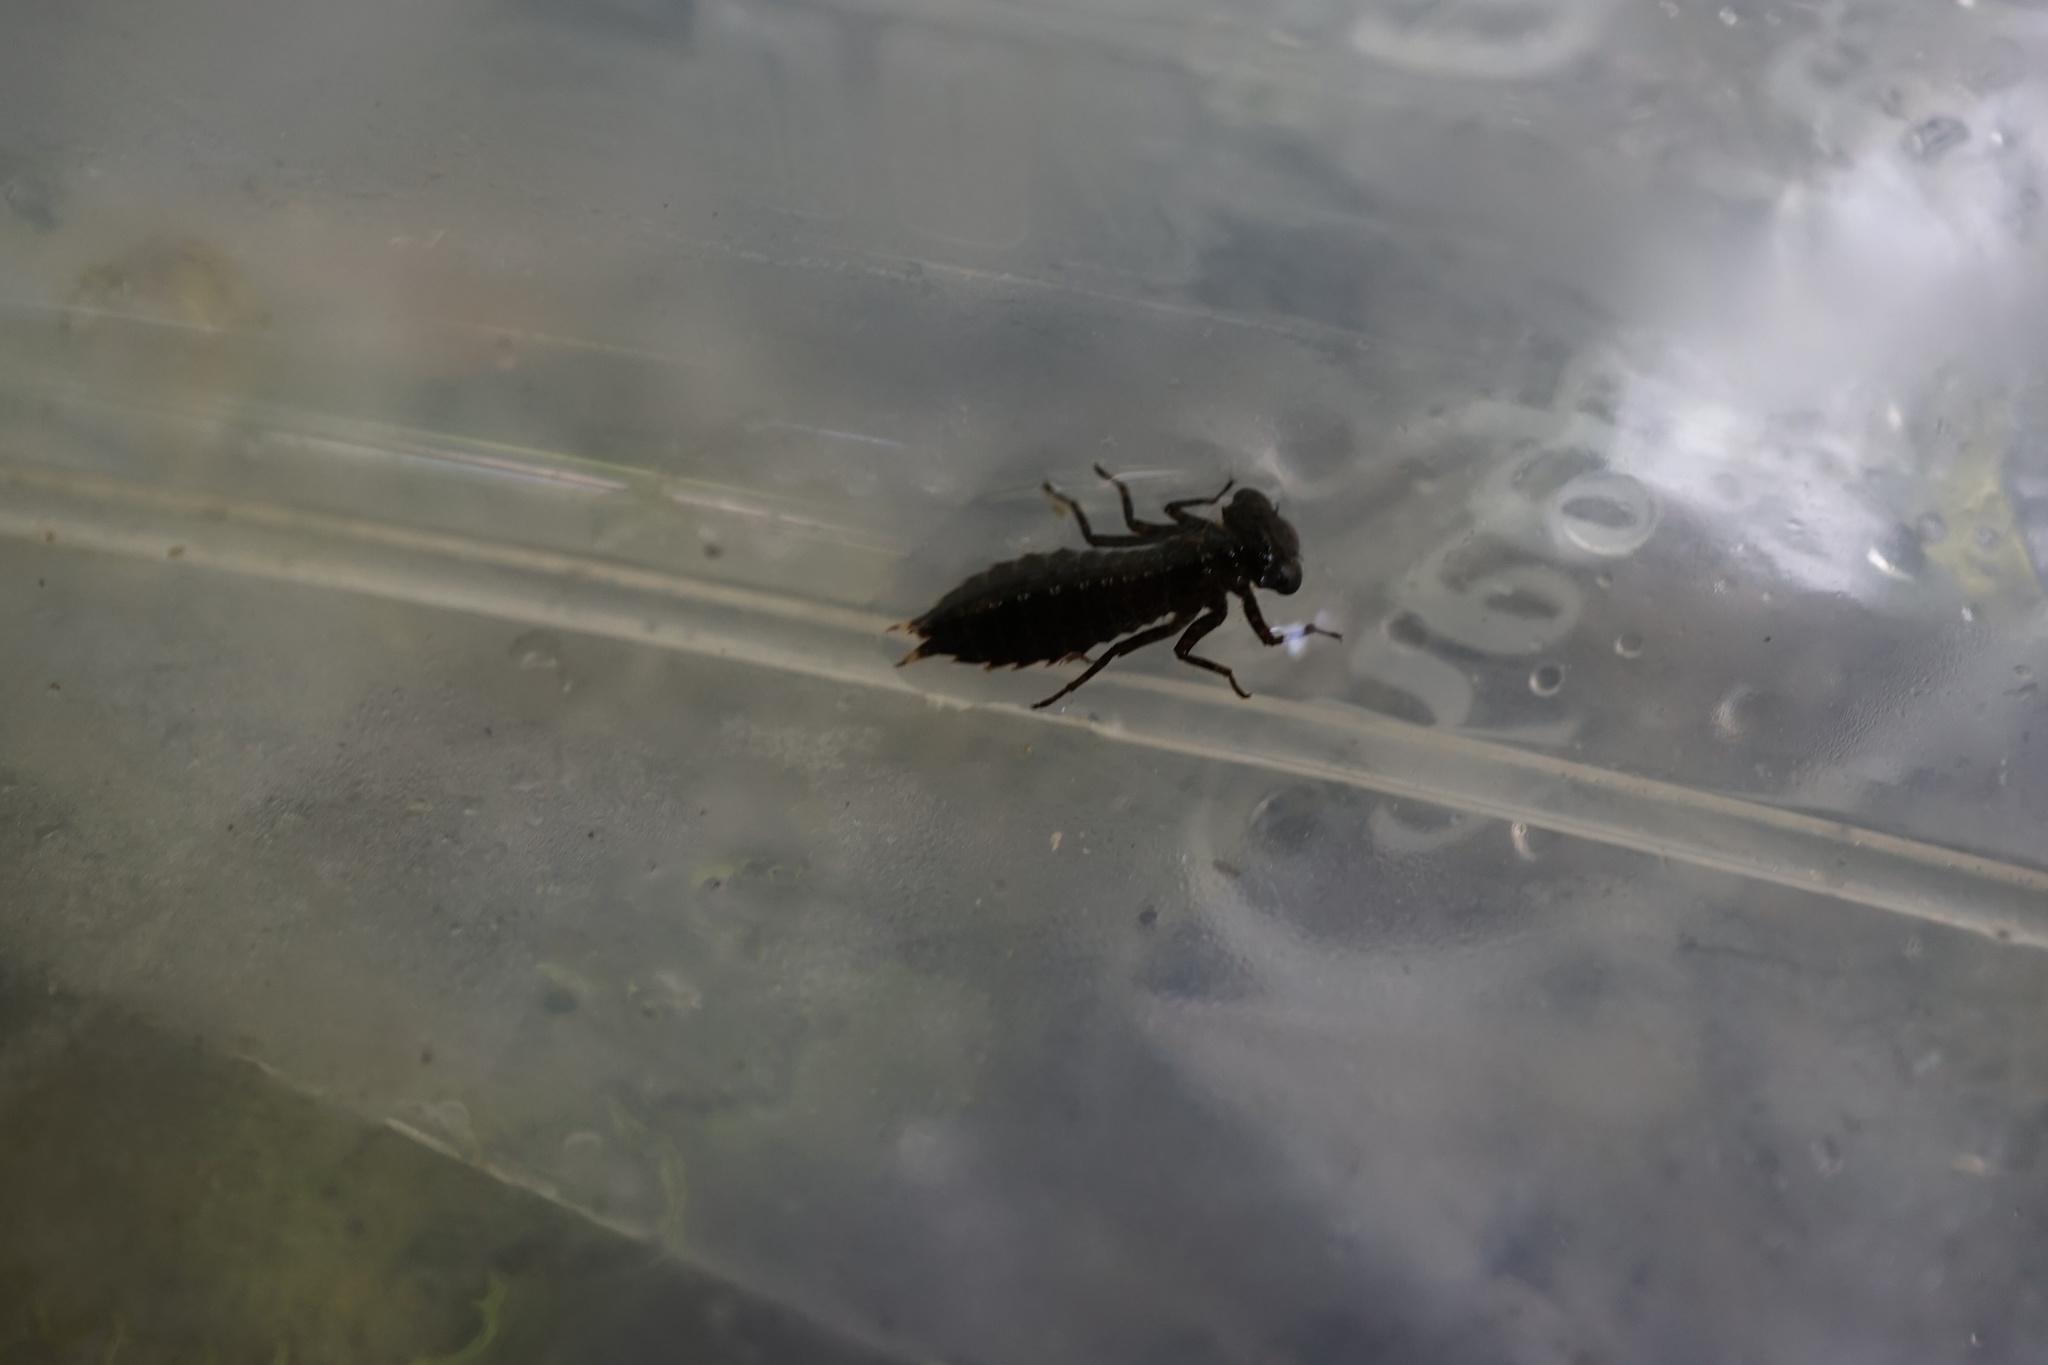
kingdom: Animalia
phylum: Arthropoda
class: Insecta
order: Odonata
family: Aeshnidae
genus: Boyeria
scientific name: Boyeria maclachlani
